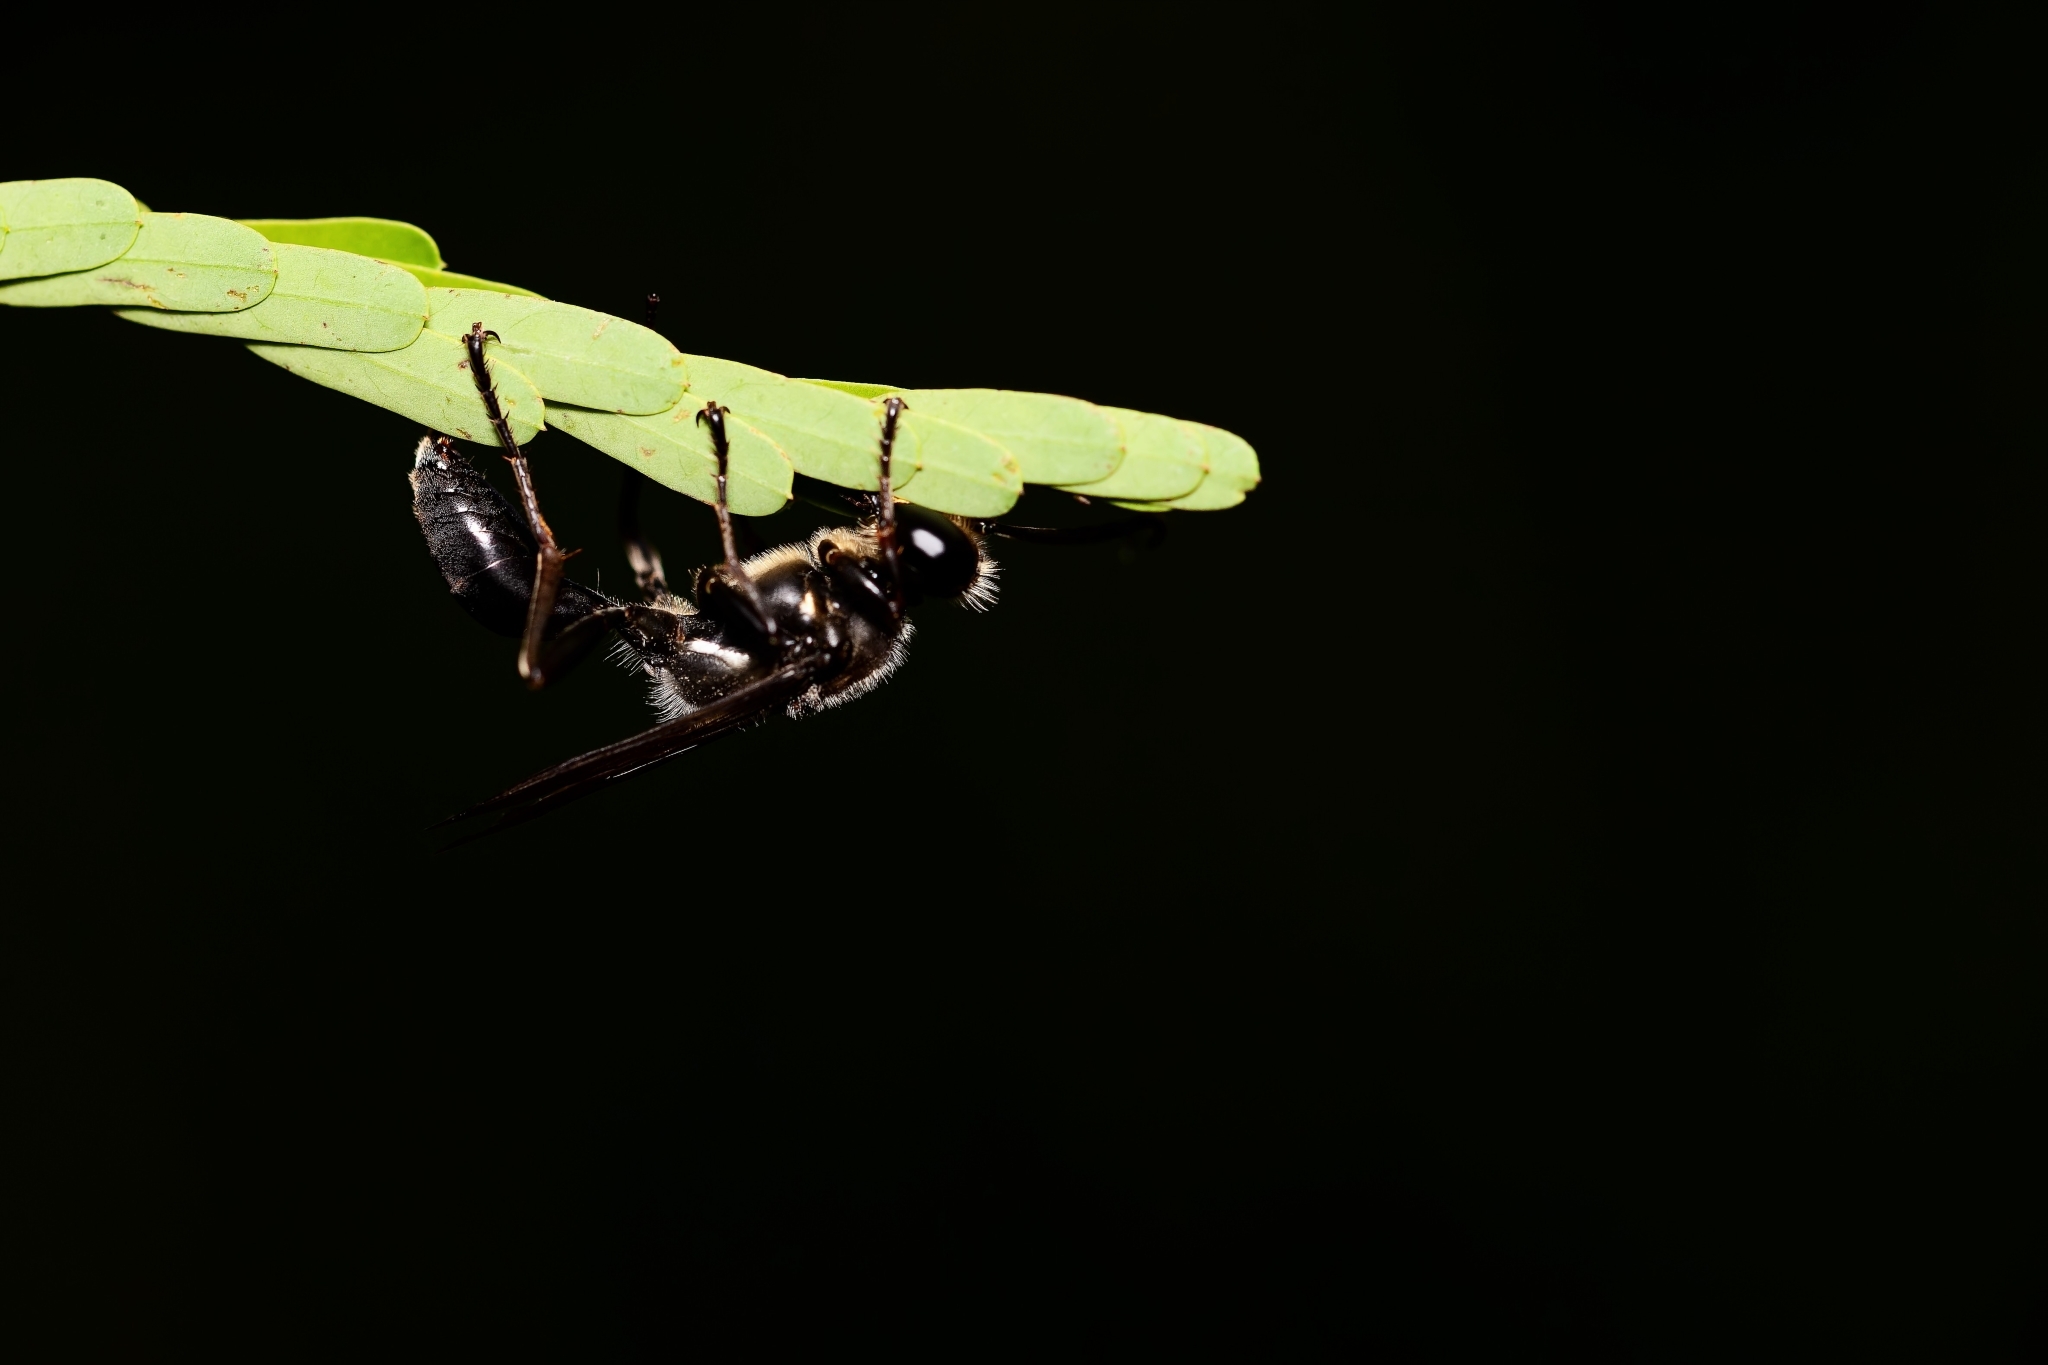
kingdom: Animalia
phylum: Arthropoda
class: Insecta
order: Hymenoptera
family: Sphecidae
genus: Sphex
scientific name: Sphex dorsalis
